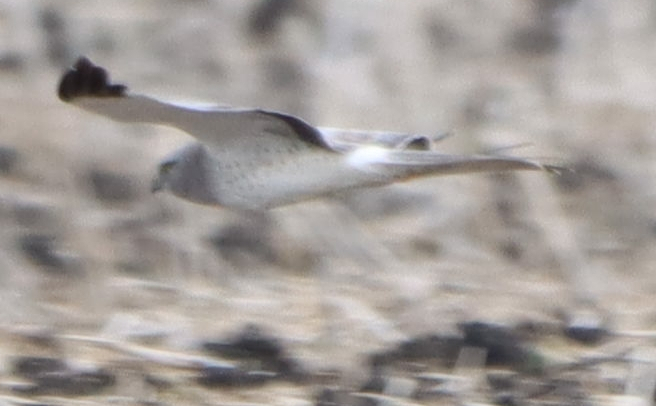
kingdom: Animalia
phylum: Chordata
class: Aves
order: Accipitriformes
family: Accipitridae
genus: Circus
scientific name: Circus cyaneus
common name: Hen harrier
